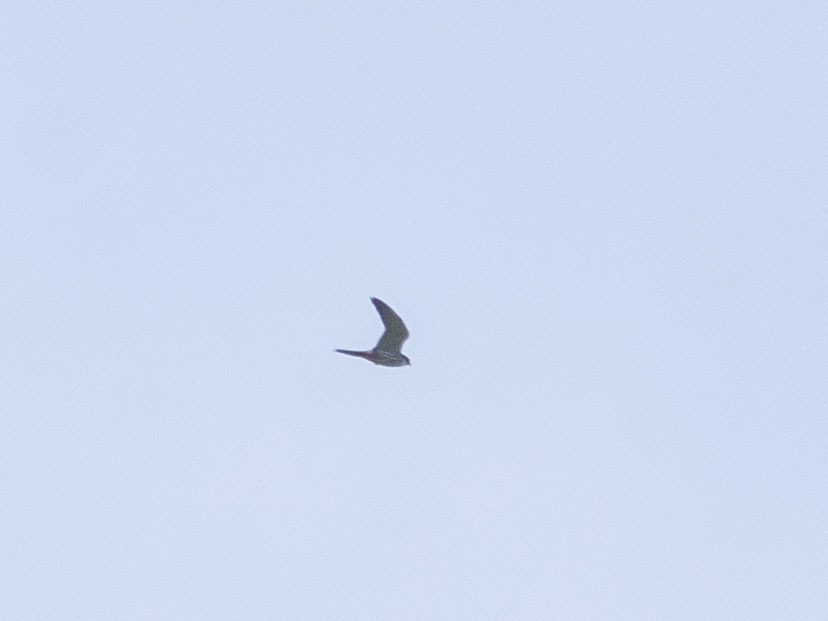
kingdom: Animalia
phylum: Chordata
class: Aves
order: Falconiformes
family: Falconidae
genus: Falco
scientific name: Falco subbuteo
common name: Eurasian hobby
